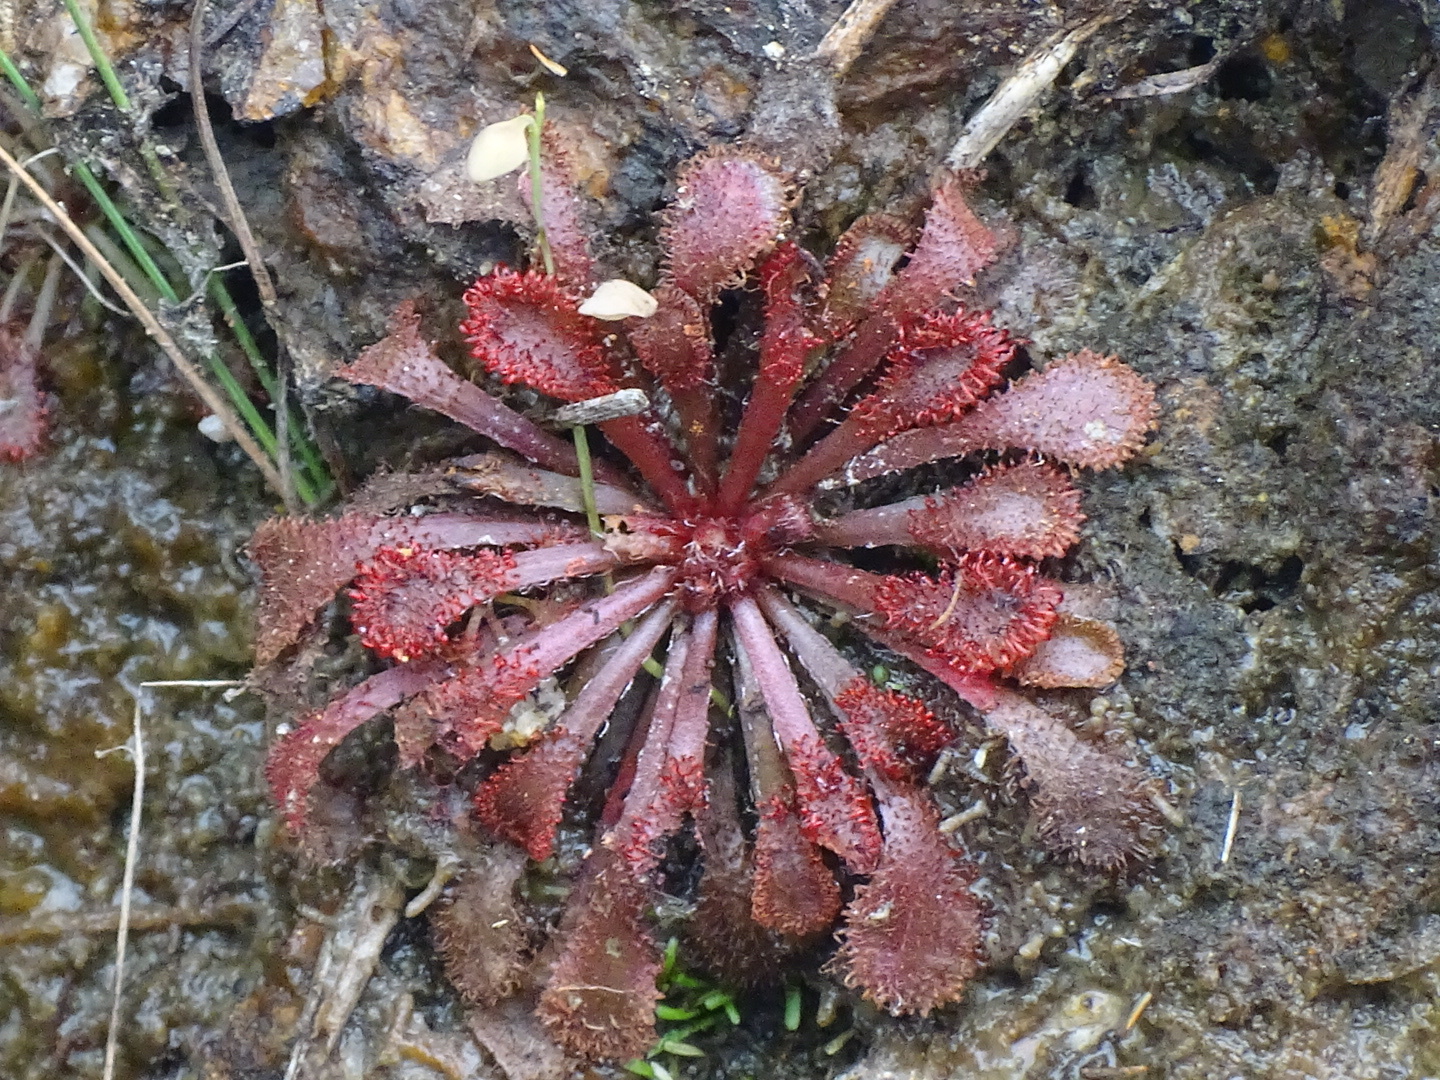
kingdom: Plantae
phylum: Tracheophyta
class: Magnoliopsida
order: Caryophyllales
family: Droseraceae
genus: Drosera
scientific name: Drosera spatulata
